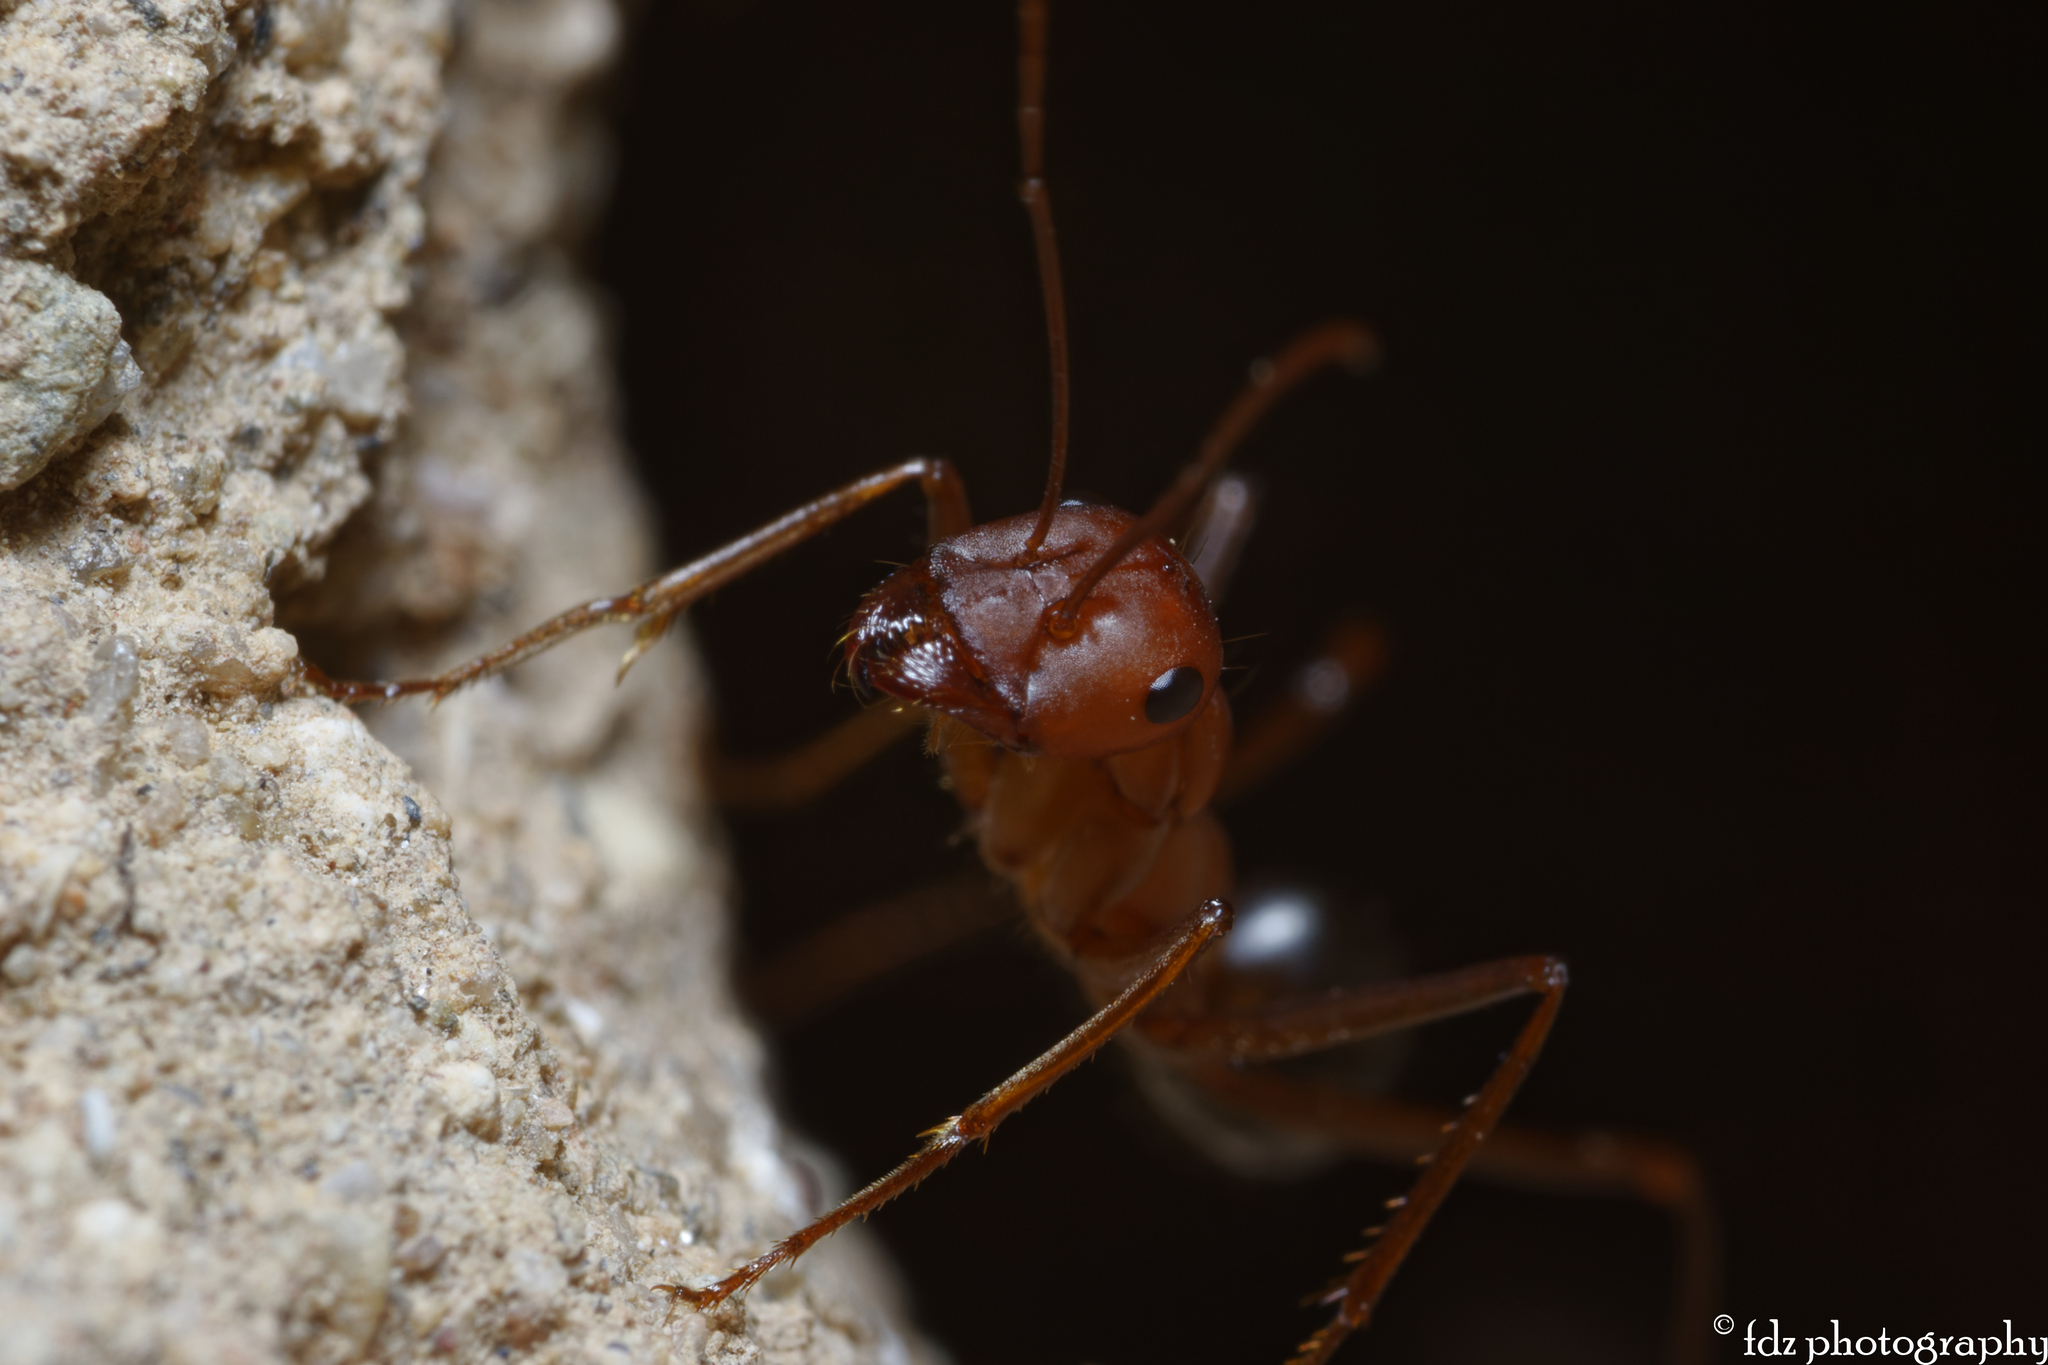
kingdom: Animalia
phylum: Arthropoda
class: Insecta
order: Hymenoptera
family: Formicidae
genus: Cataglyphis
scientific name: Cataglyphis velox
